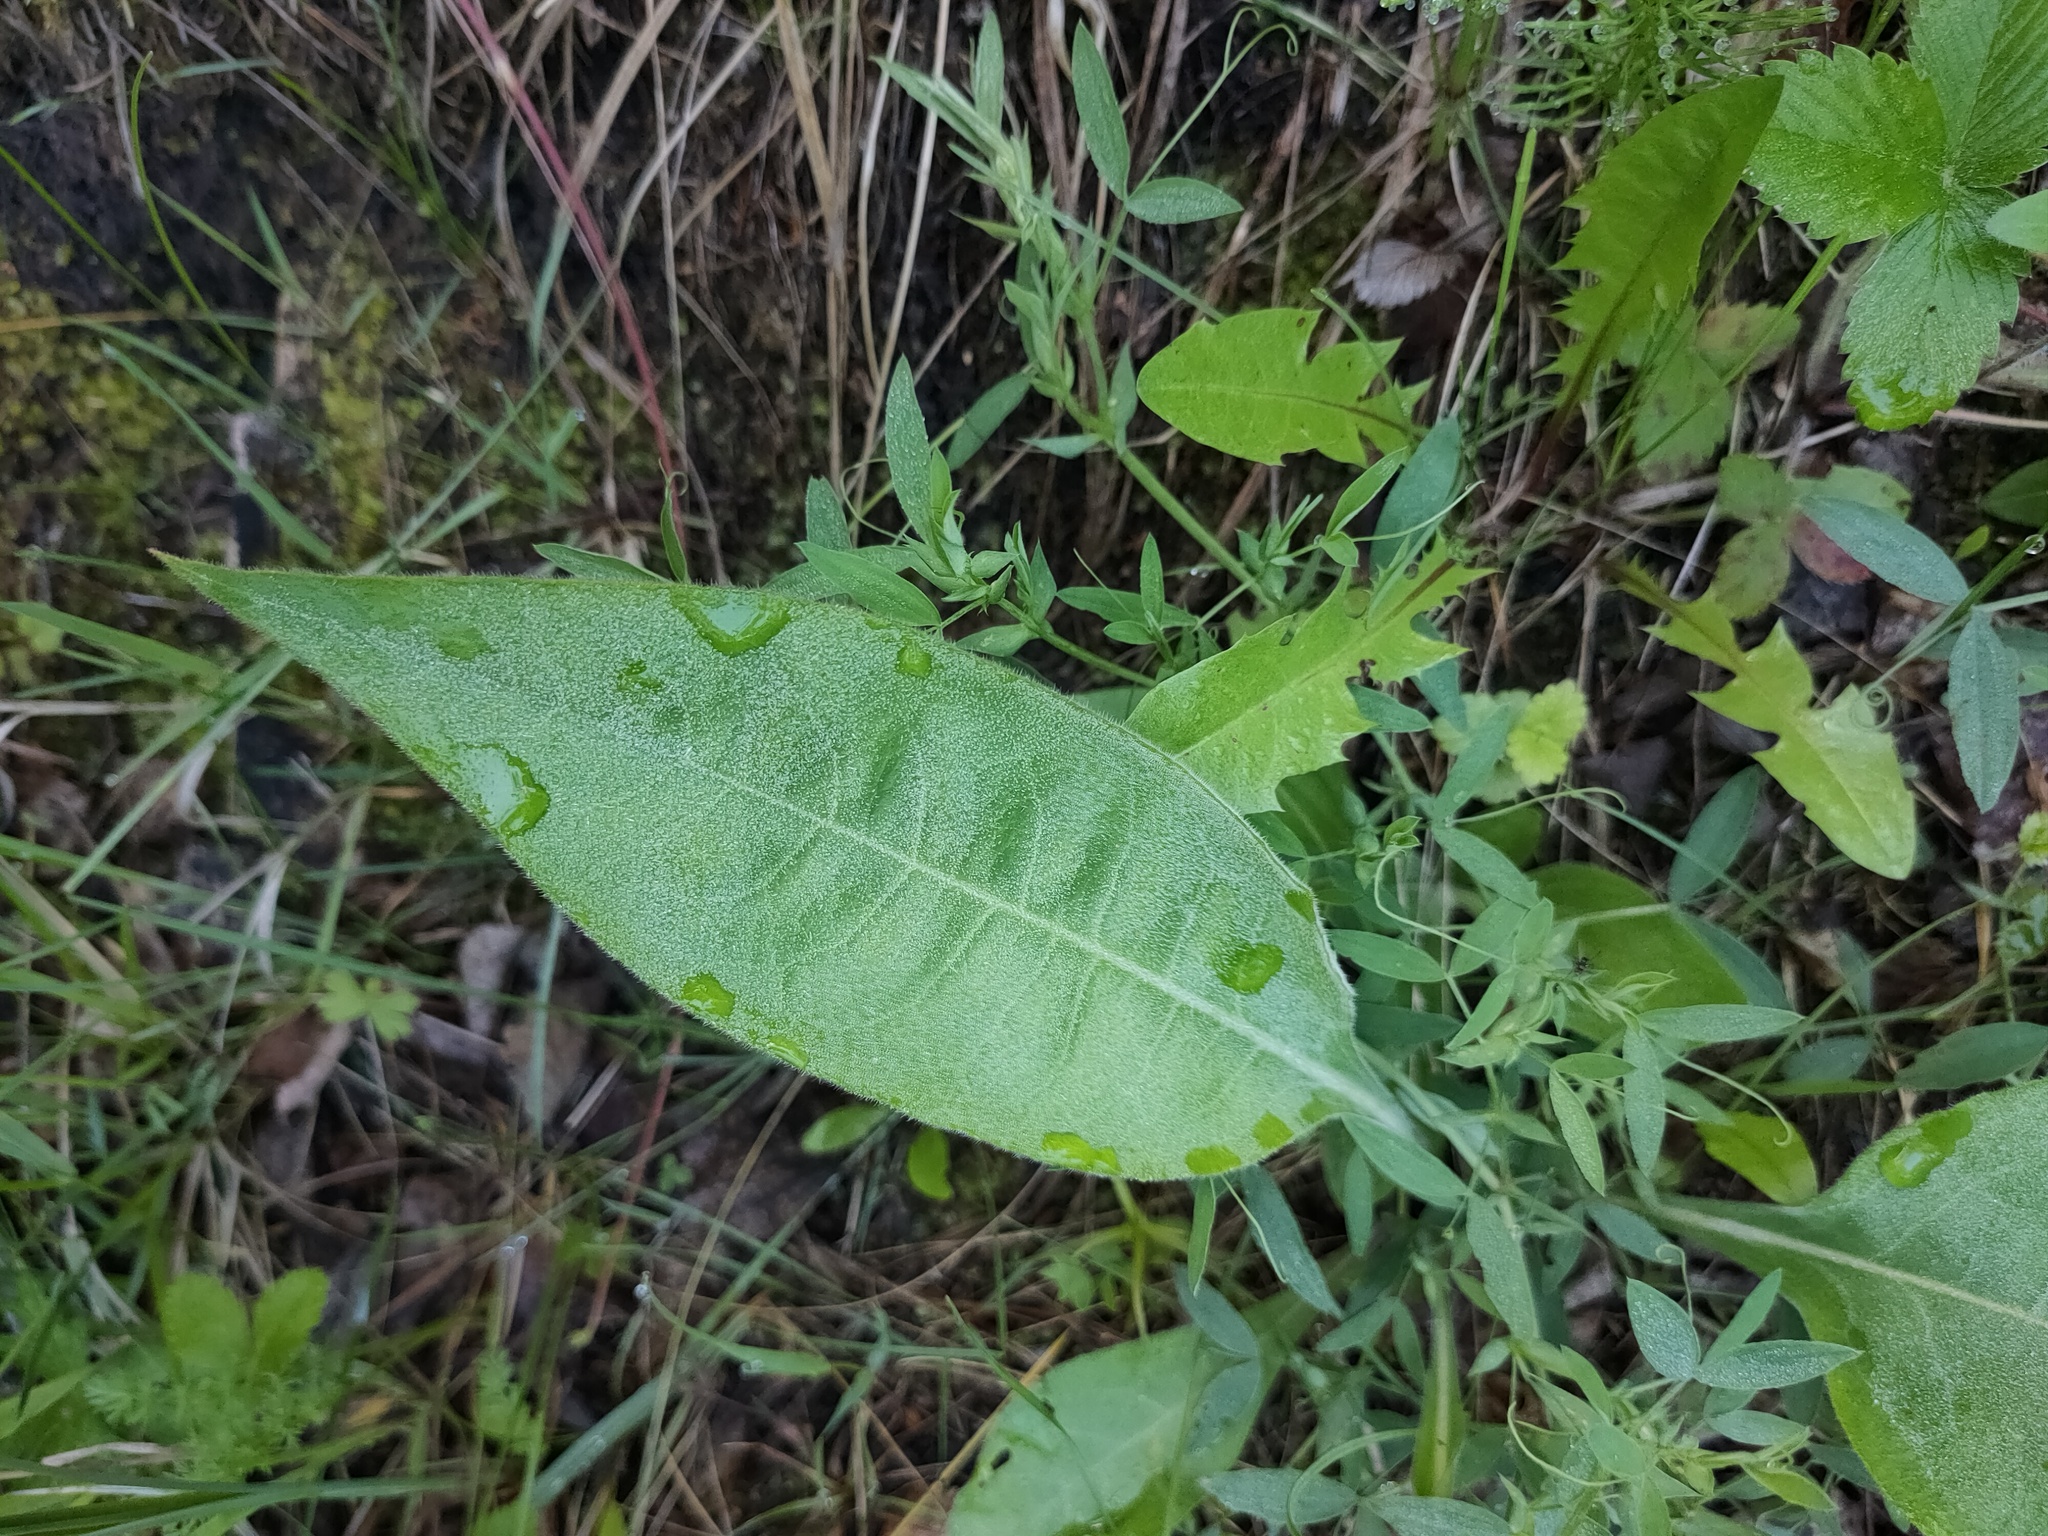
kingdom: Plantae
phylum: Tracheophyta
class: Magnoliopsida
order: Boraginales
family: Boraginaceae
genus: Pulmonaria
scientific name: Pulmonaria mollis
